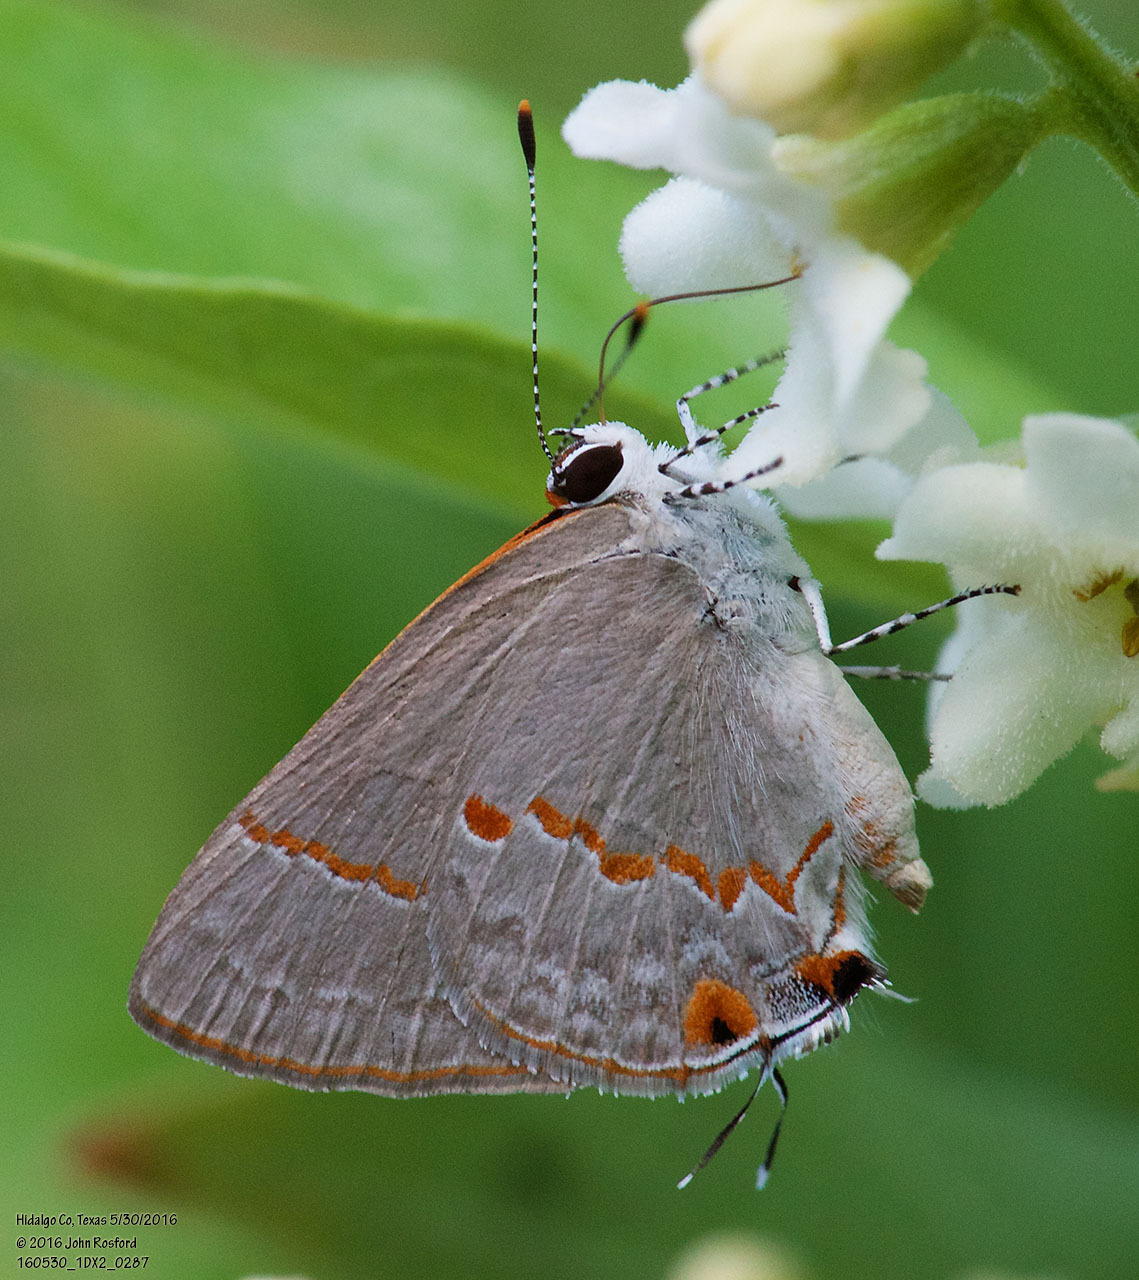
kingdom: Animalia
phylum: Arthropoda
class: Insecta
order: Lepidoptera
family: Lycaenidae
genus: Thecla
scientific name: Thecla azia
